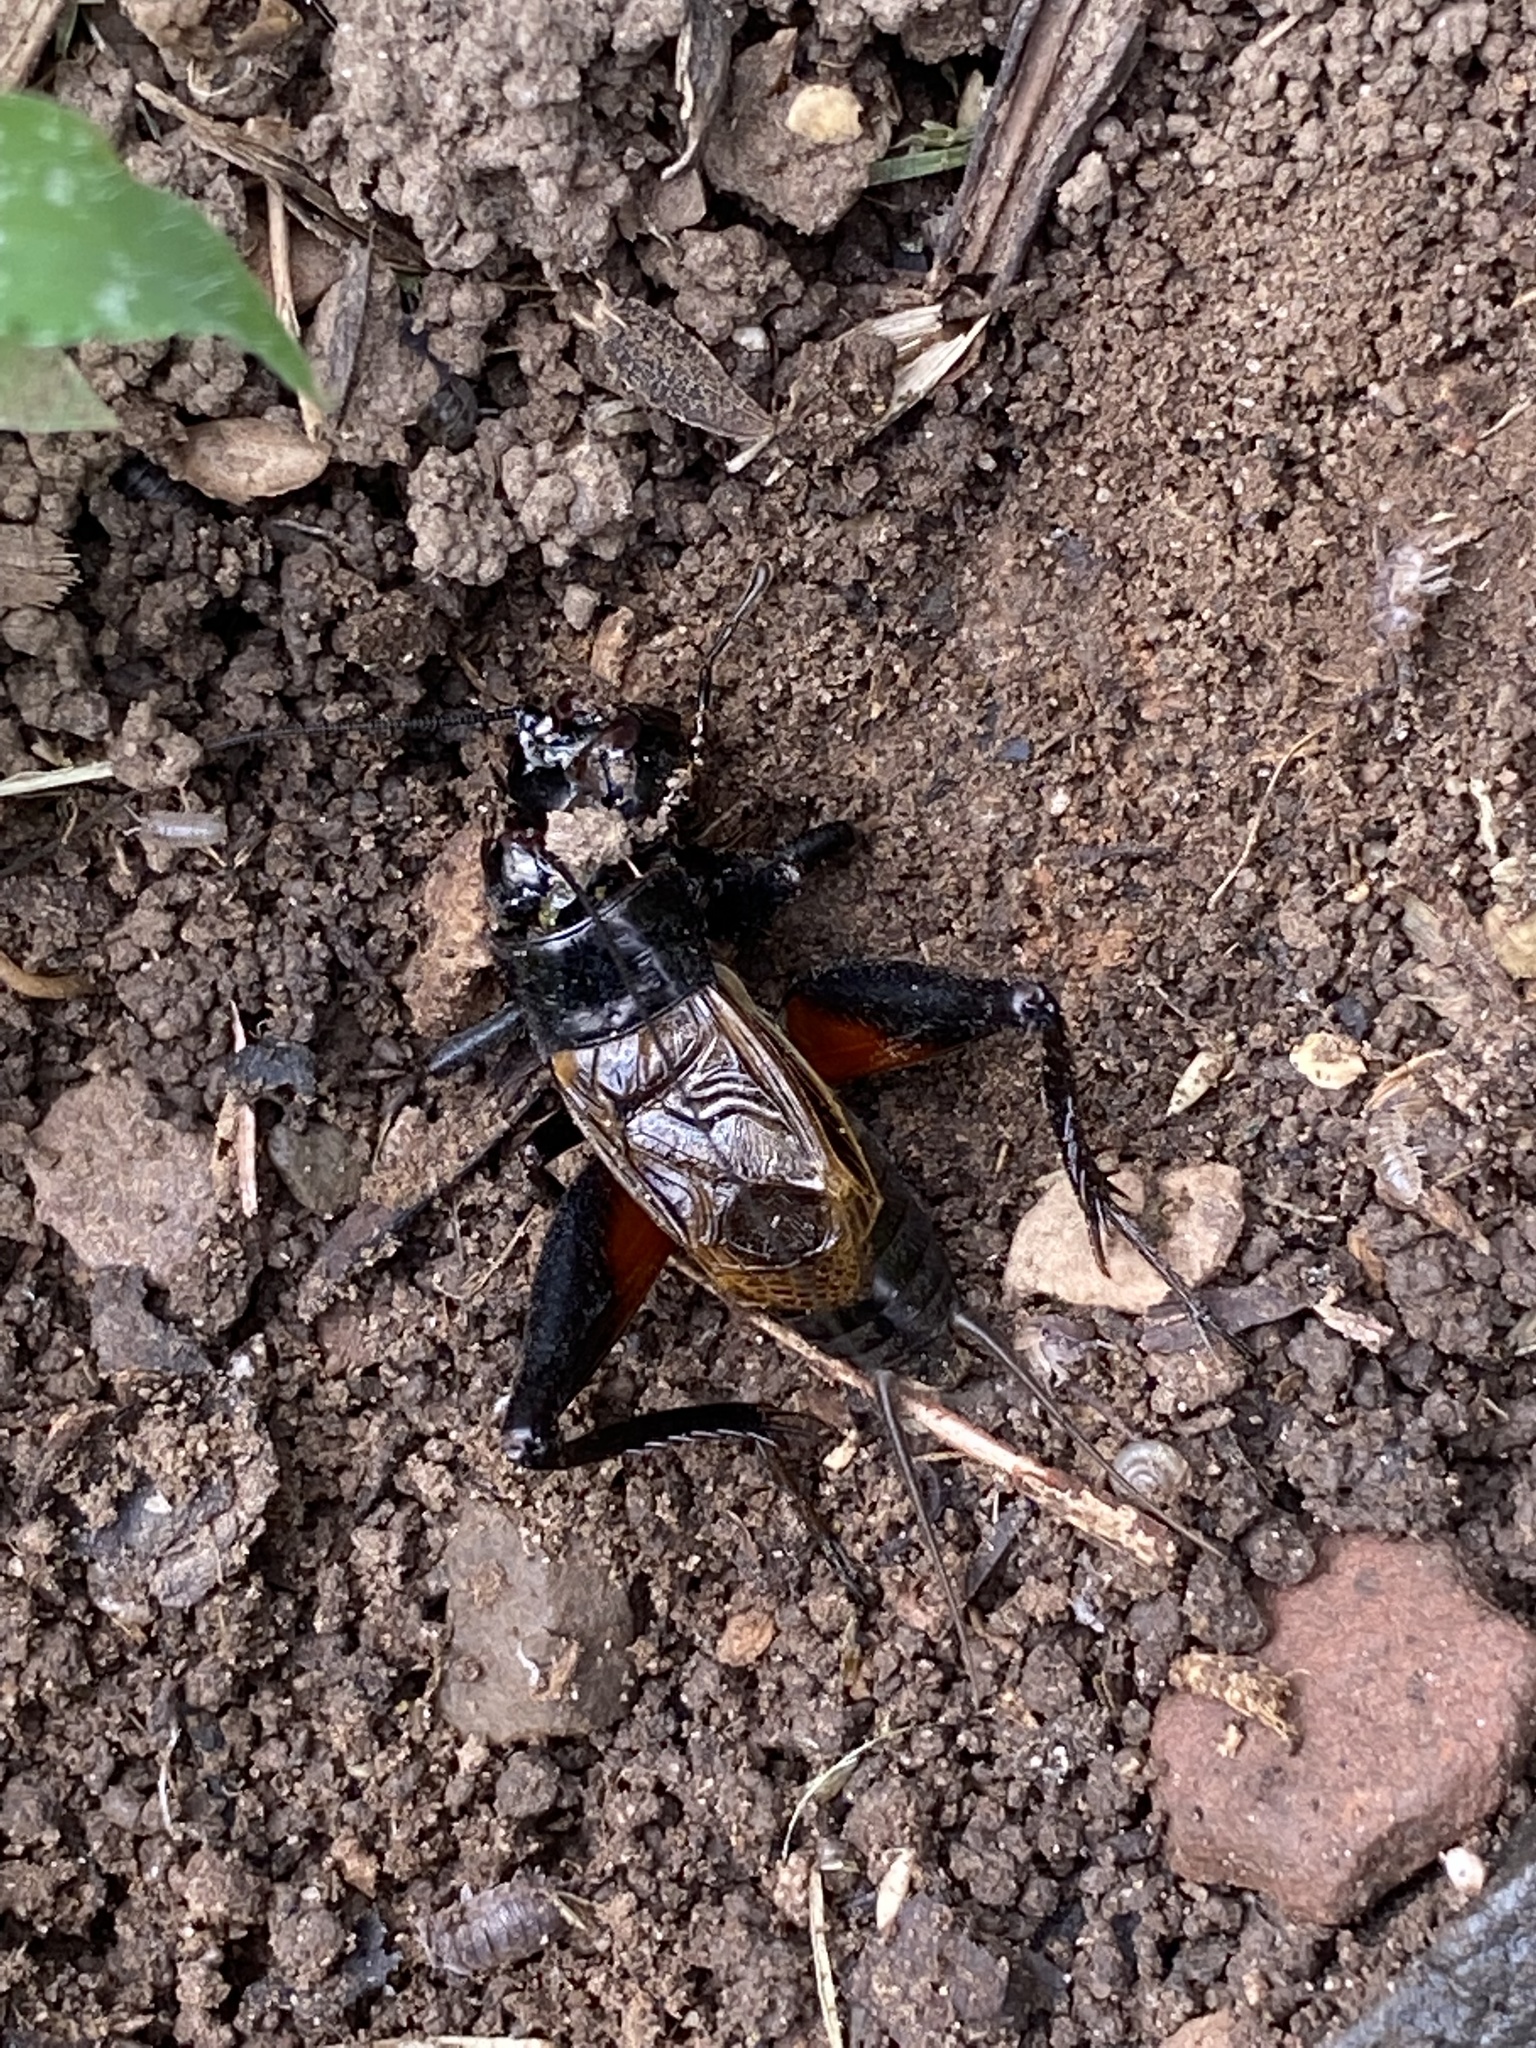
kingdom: Animalia
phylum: Arthropoda
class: Insecta
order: Orthoptera
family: Gryllidae
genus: Gryllus
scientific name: Gryllus pennsylvanicus
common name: Fall field cricket
